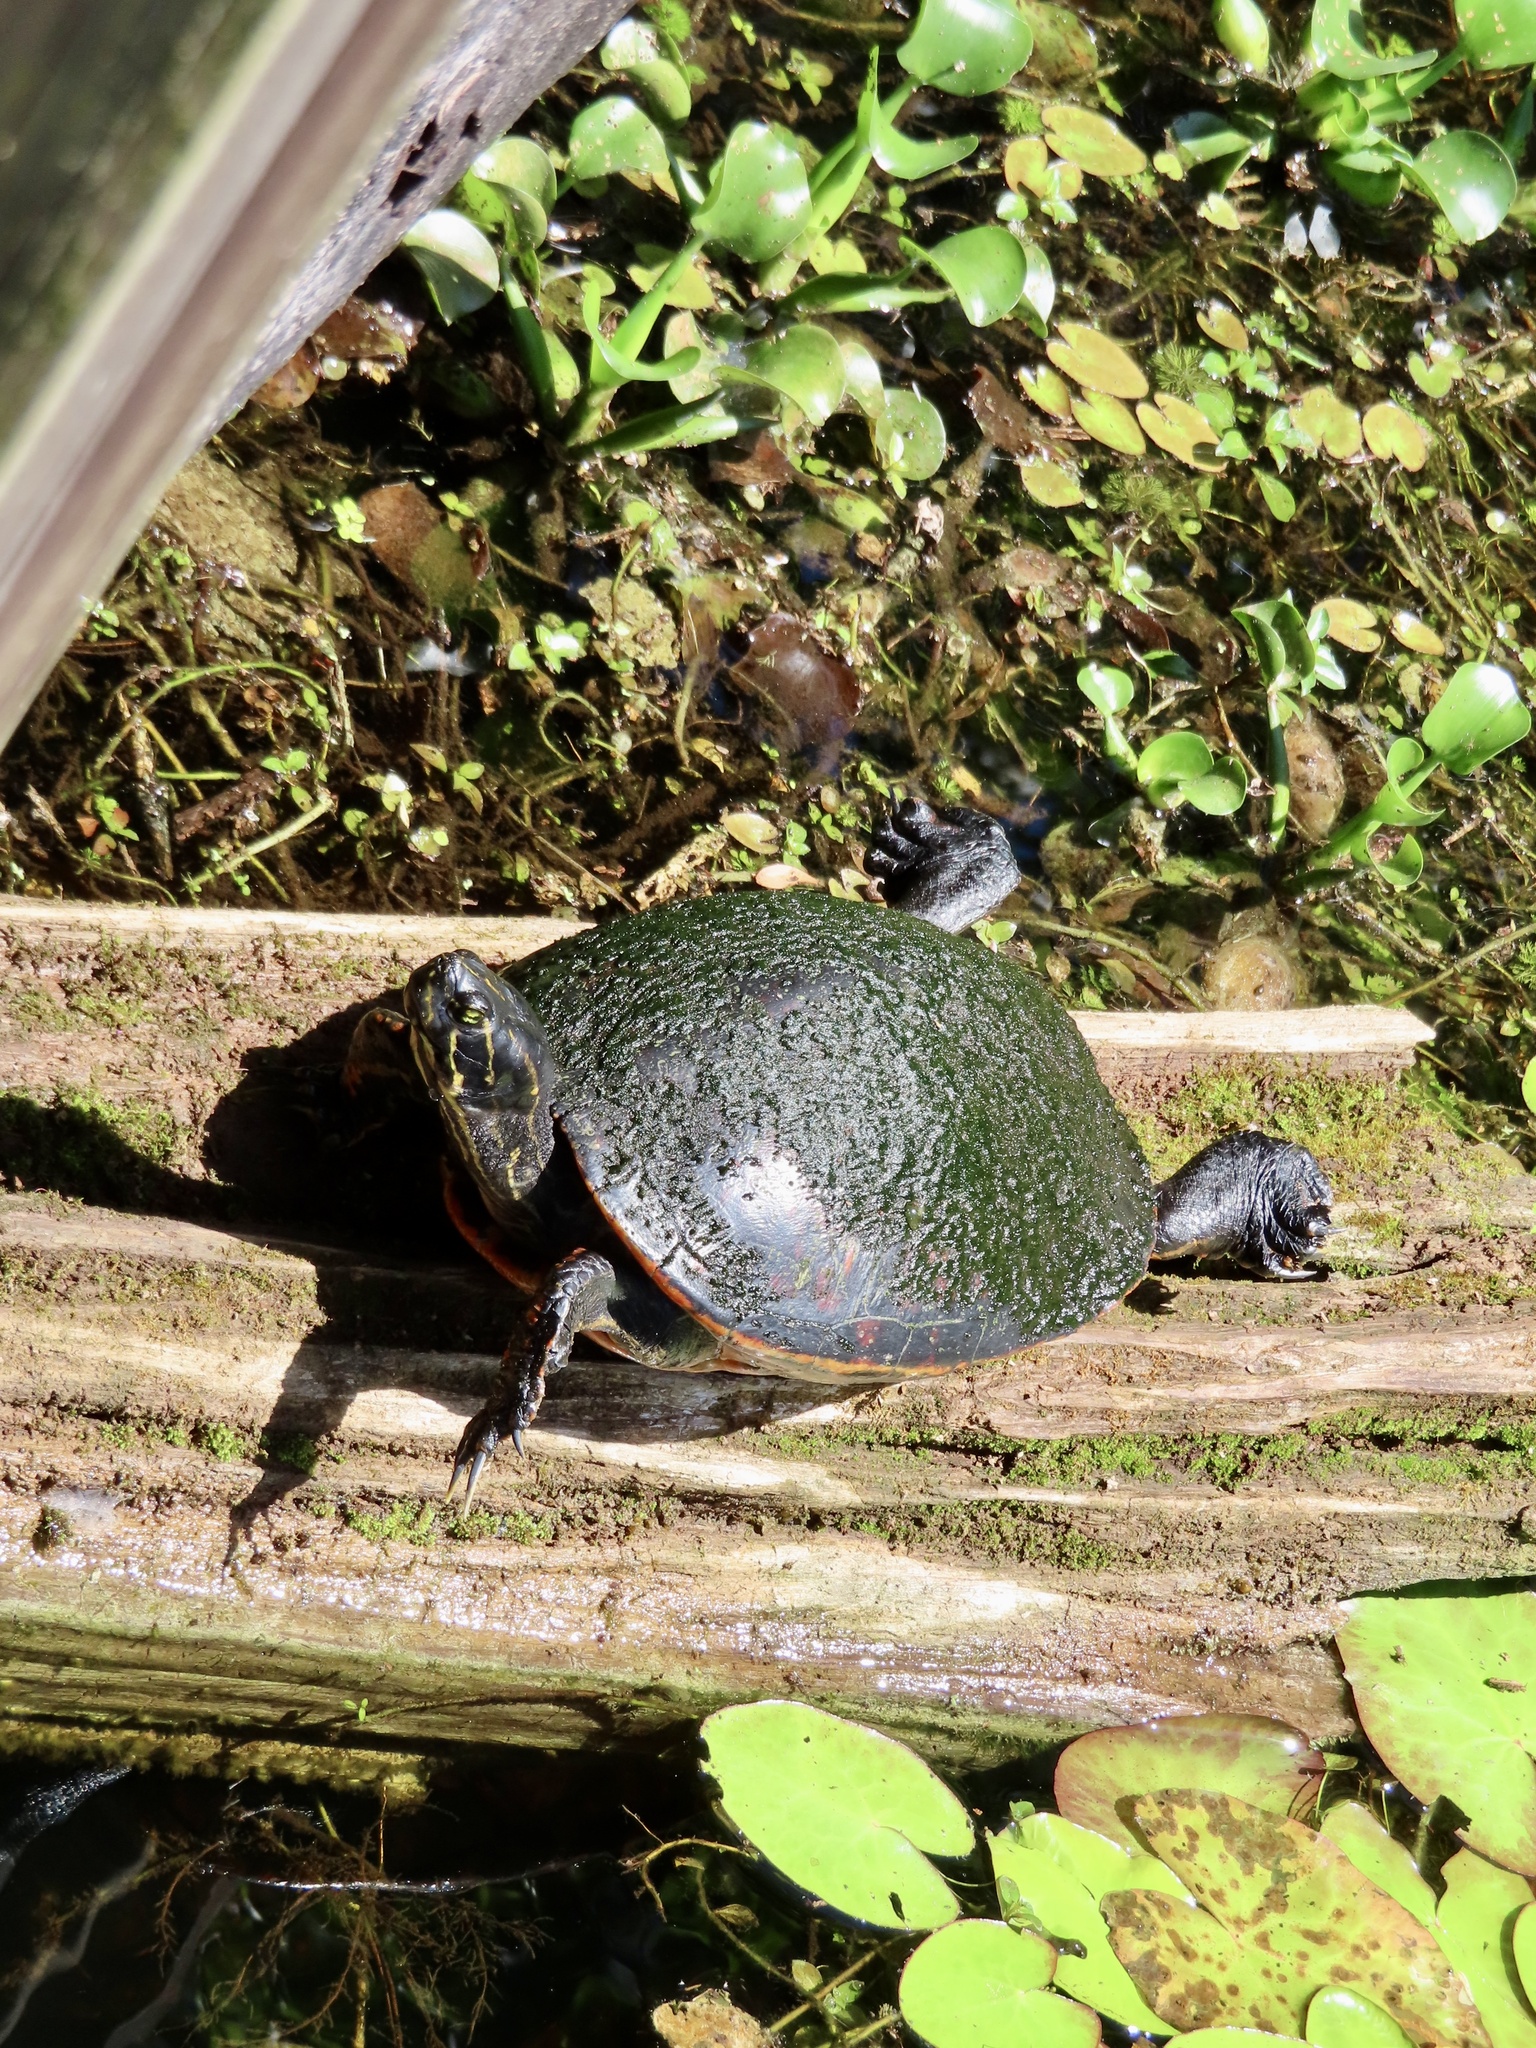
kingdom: Animalia
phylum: Chordata
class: Testudines
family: Emydidae
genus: Pseudemys
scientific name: Pseudemys nelsoni
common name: Florida red-bellied turtle
